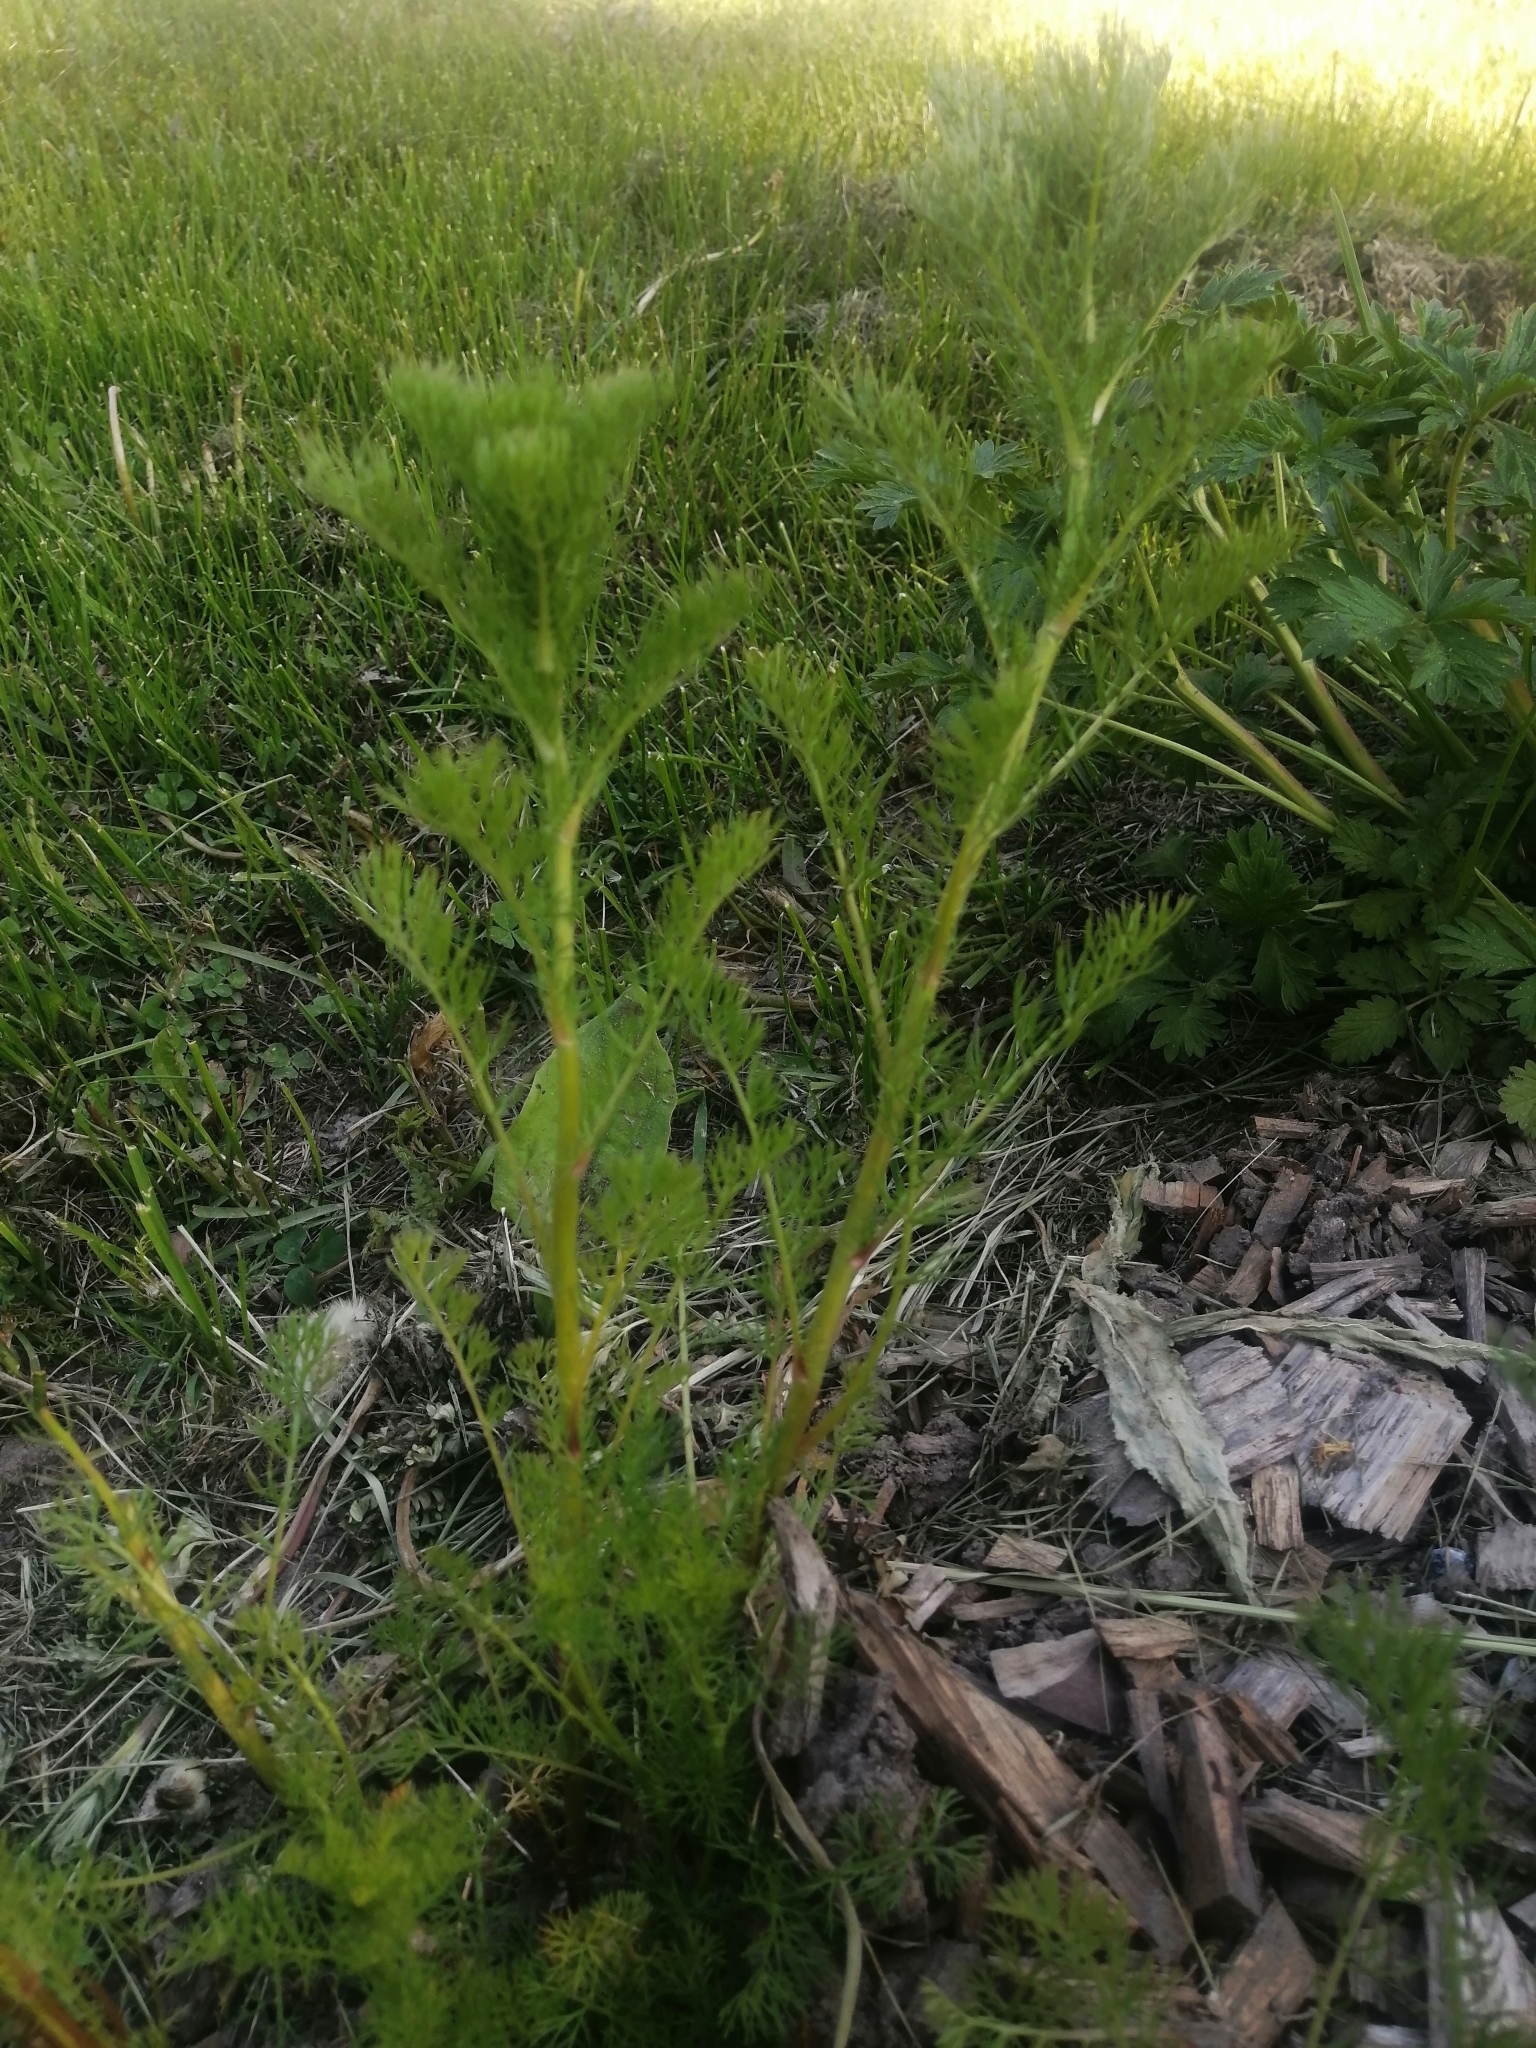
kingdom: Plantae
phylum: Tracheophyta
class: Magnoliopsida
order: Asterales
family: Asteraceae
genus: Tripleurospermum
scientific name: Tripleurospermum inodorum
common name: Scentless mayweed
